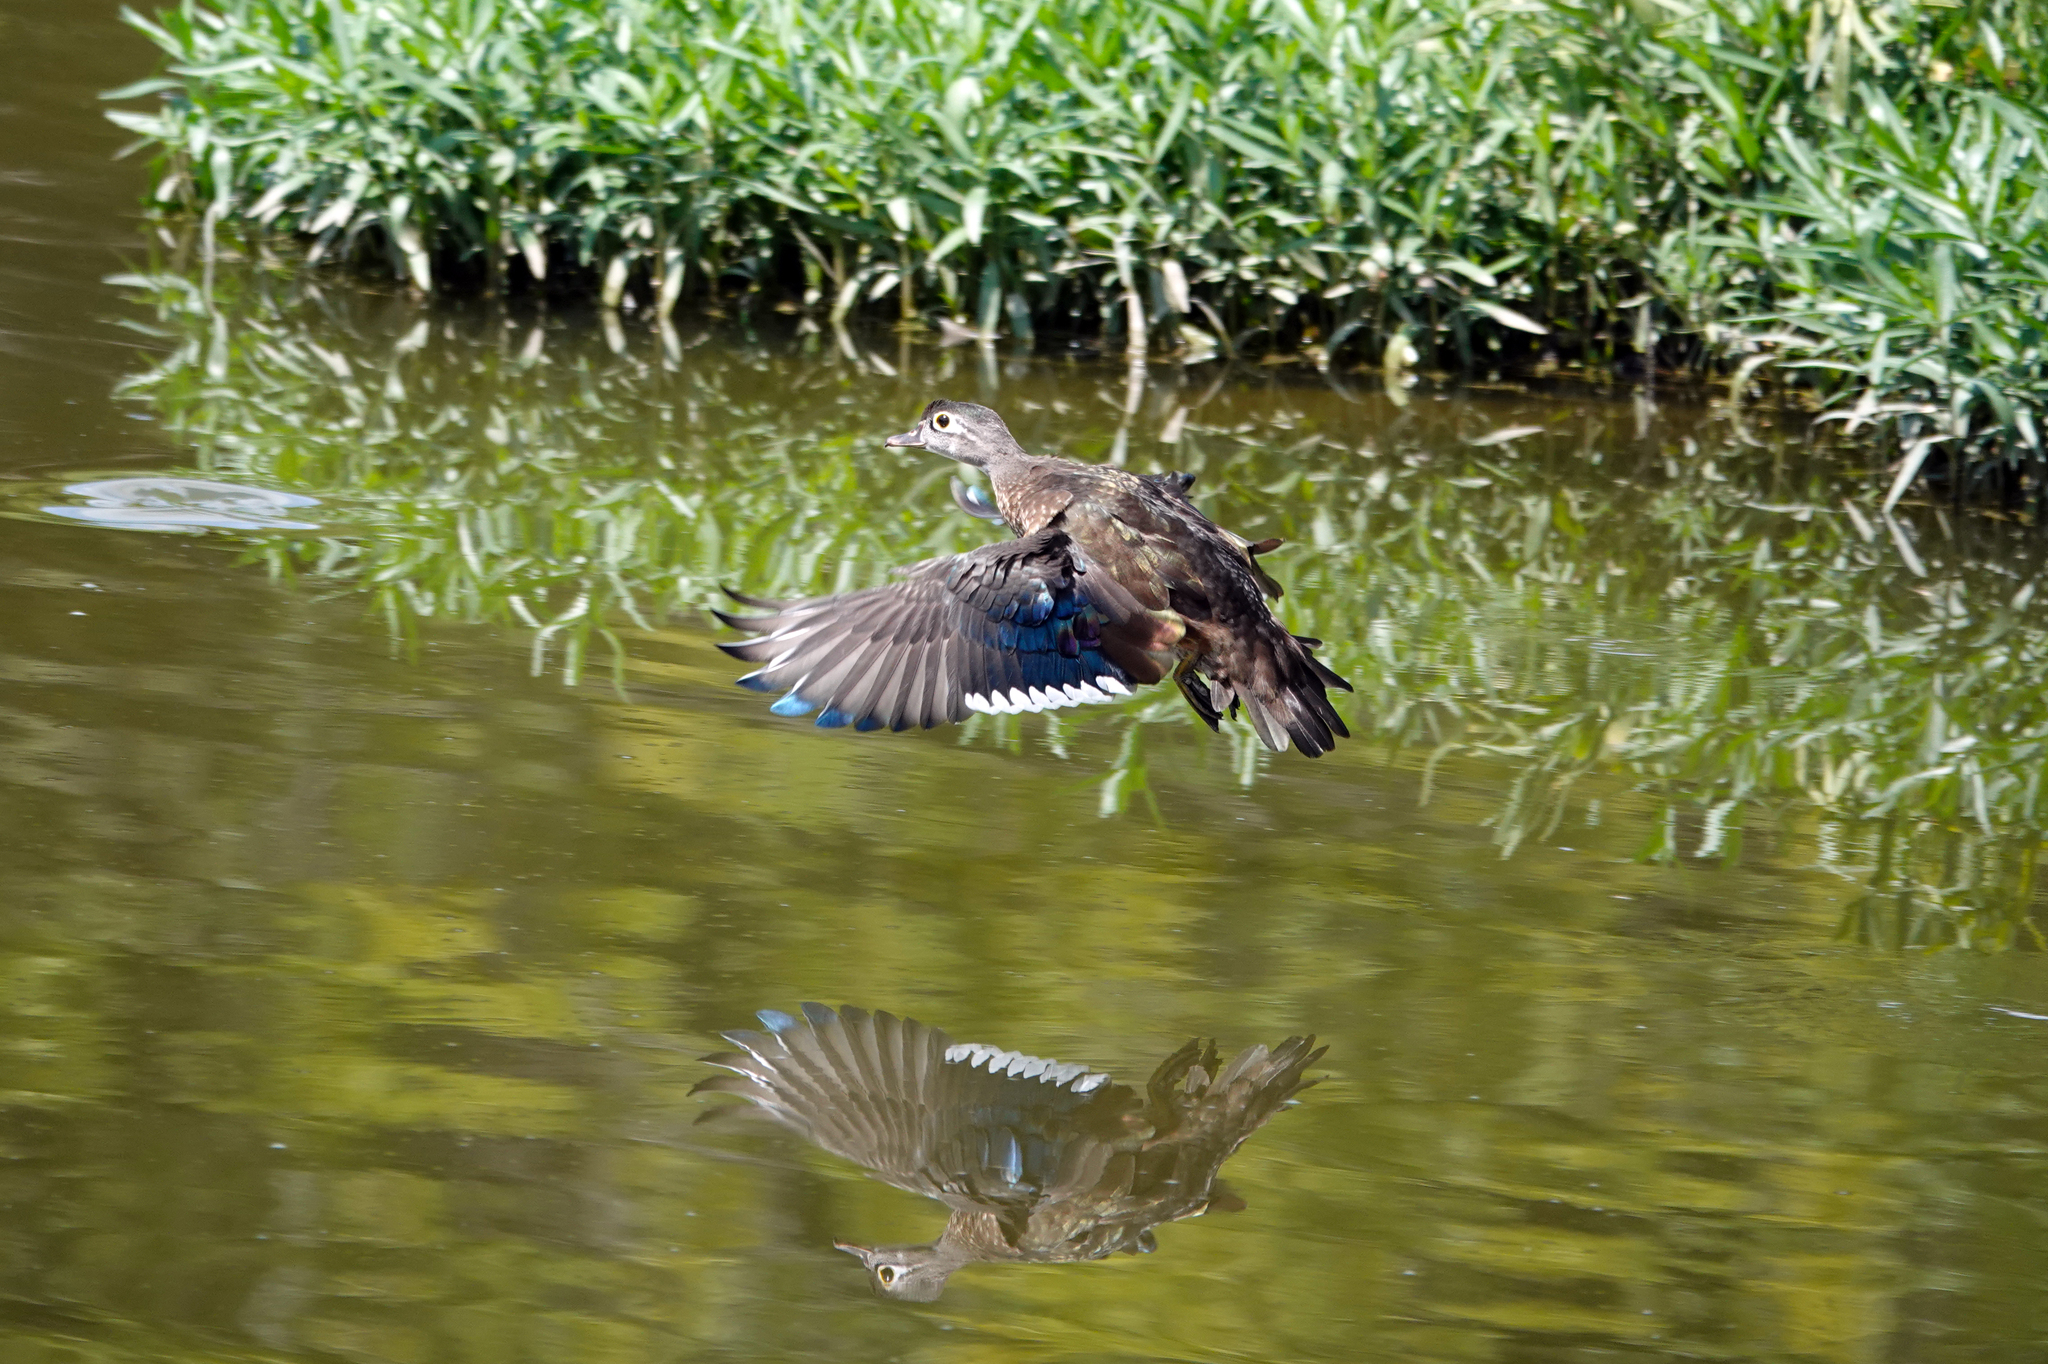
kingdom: Animalia
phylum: Chordata
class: Aves
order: Anseriformes
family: Anatidae
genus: Aix
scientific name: Aix sponsa
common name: Wood duck
